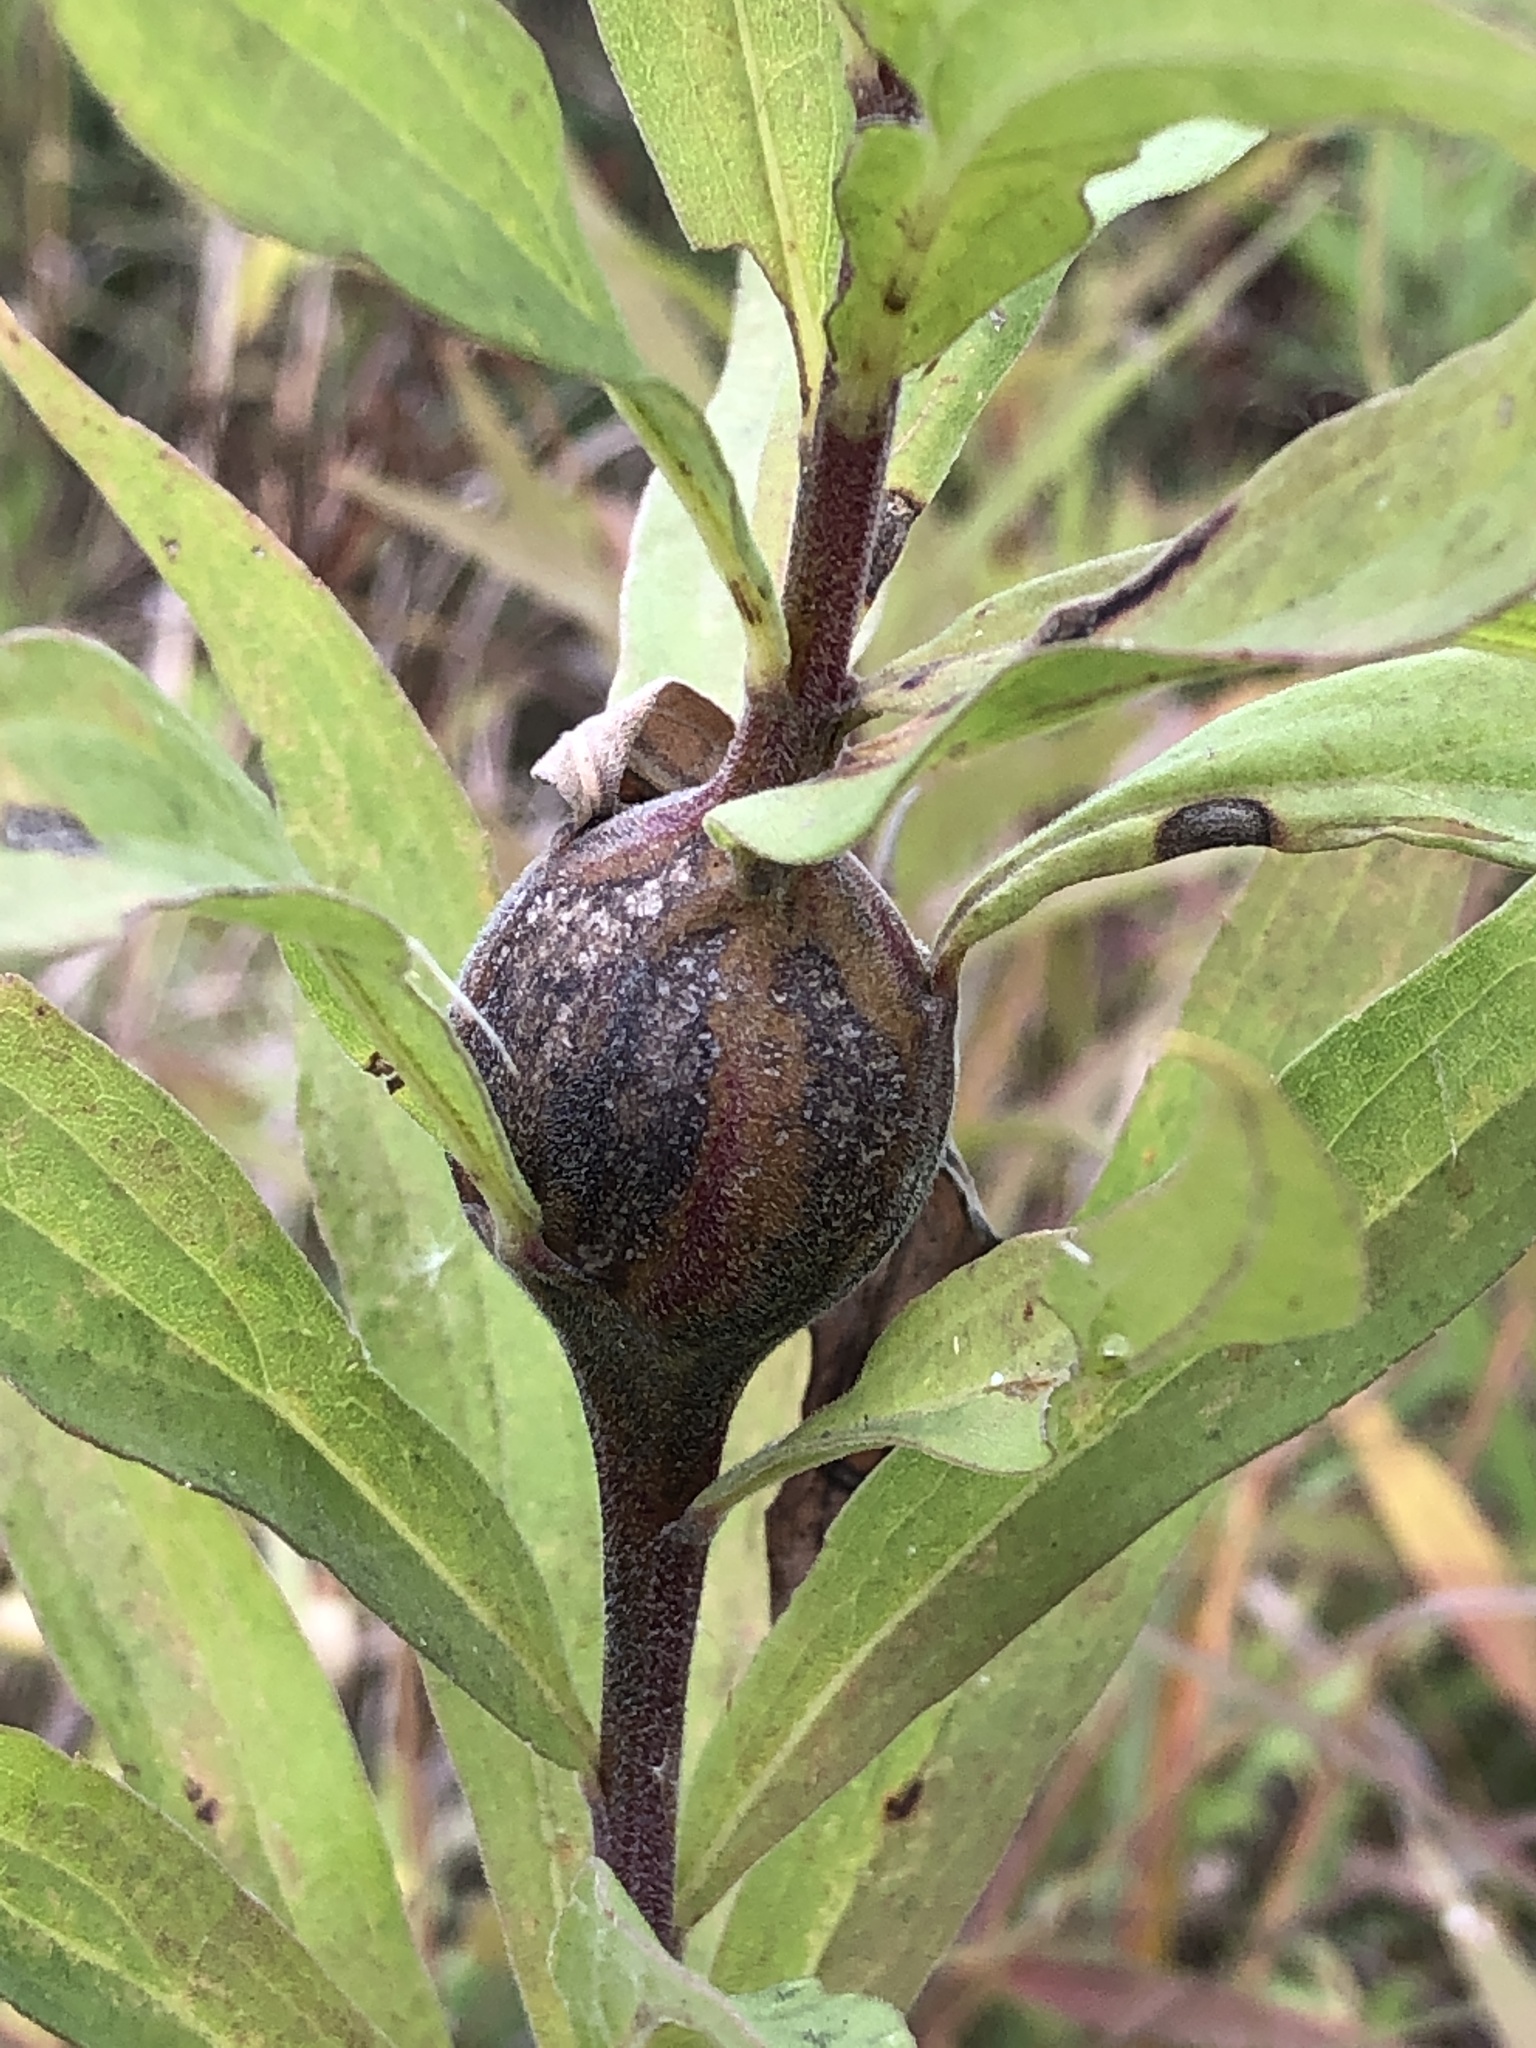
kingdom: Animalia
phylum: Arthropoda
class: Insecta
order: Diptera
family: Tephritidae
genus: Eurosta
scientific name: Eurosta solidaginis
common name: Goldenrod gall fly
